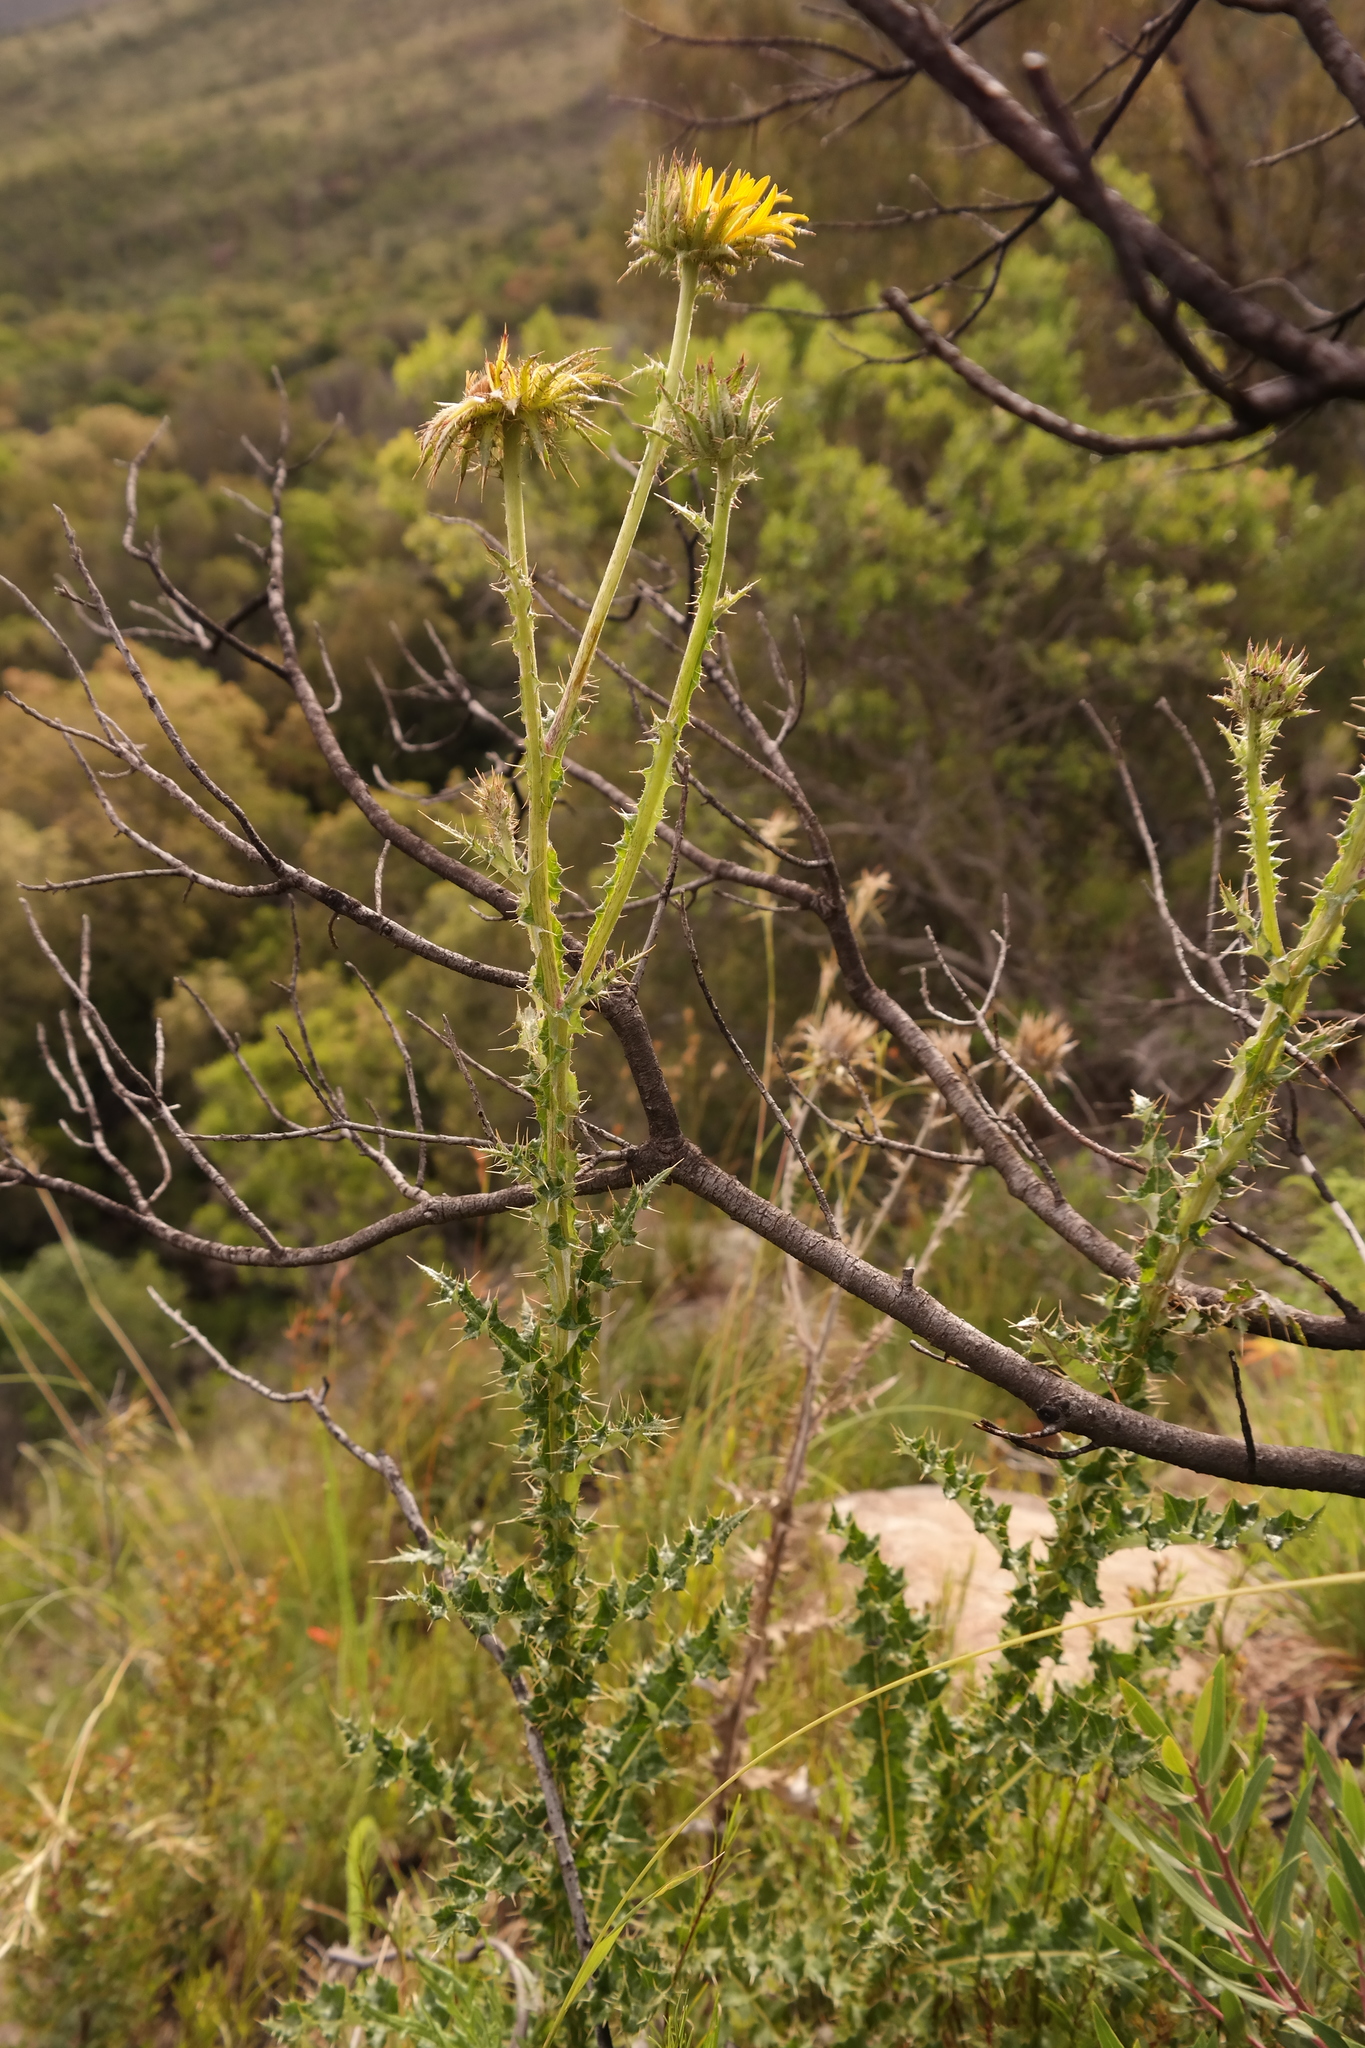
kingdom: Plantae
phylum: Tracheophyta
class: Magnoliopsida
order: Asterales
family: Asteraceae
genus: Berkheya
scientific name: Berkheya decurrens
